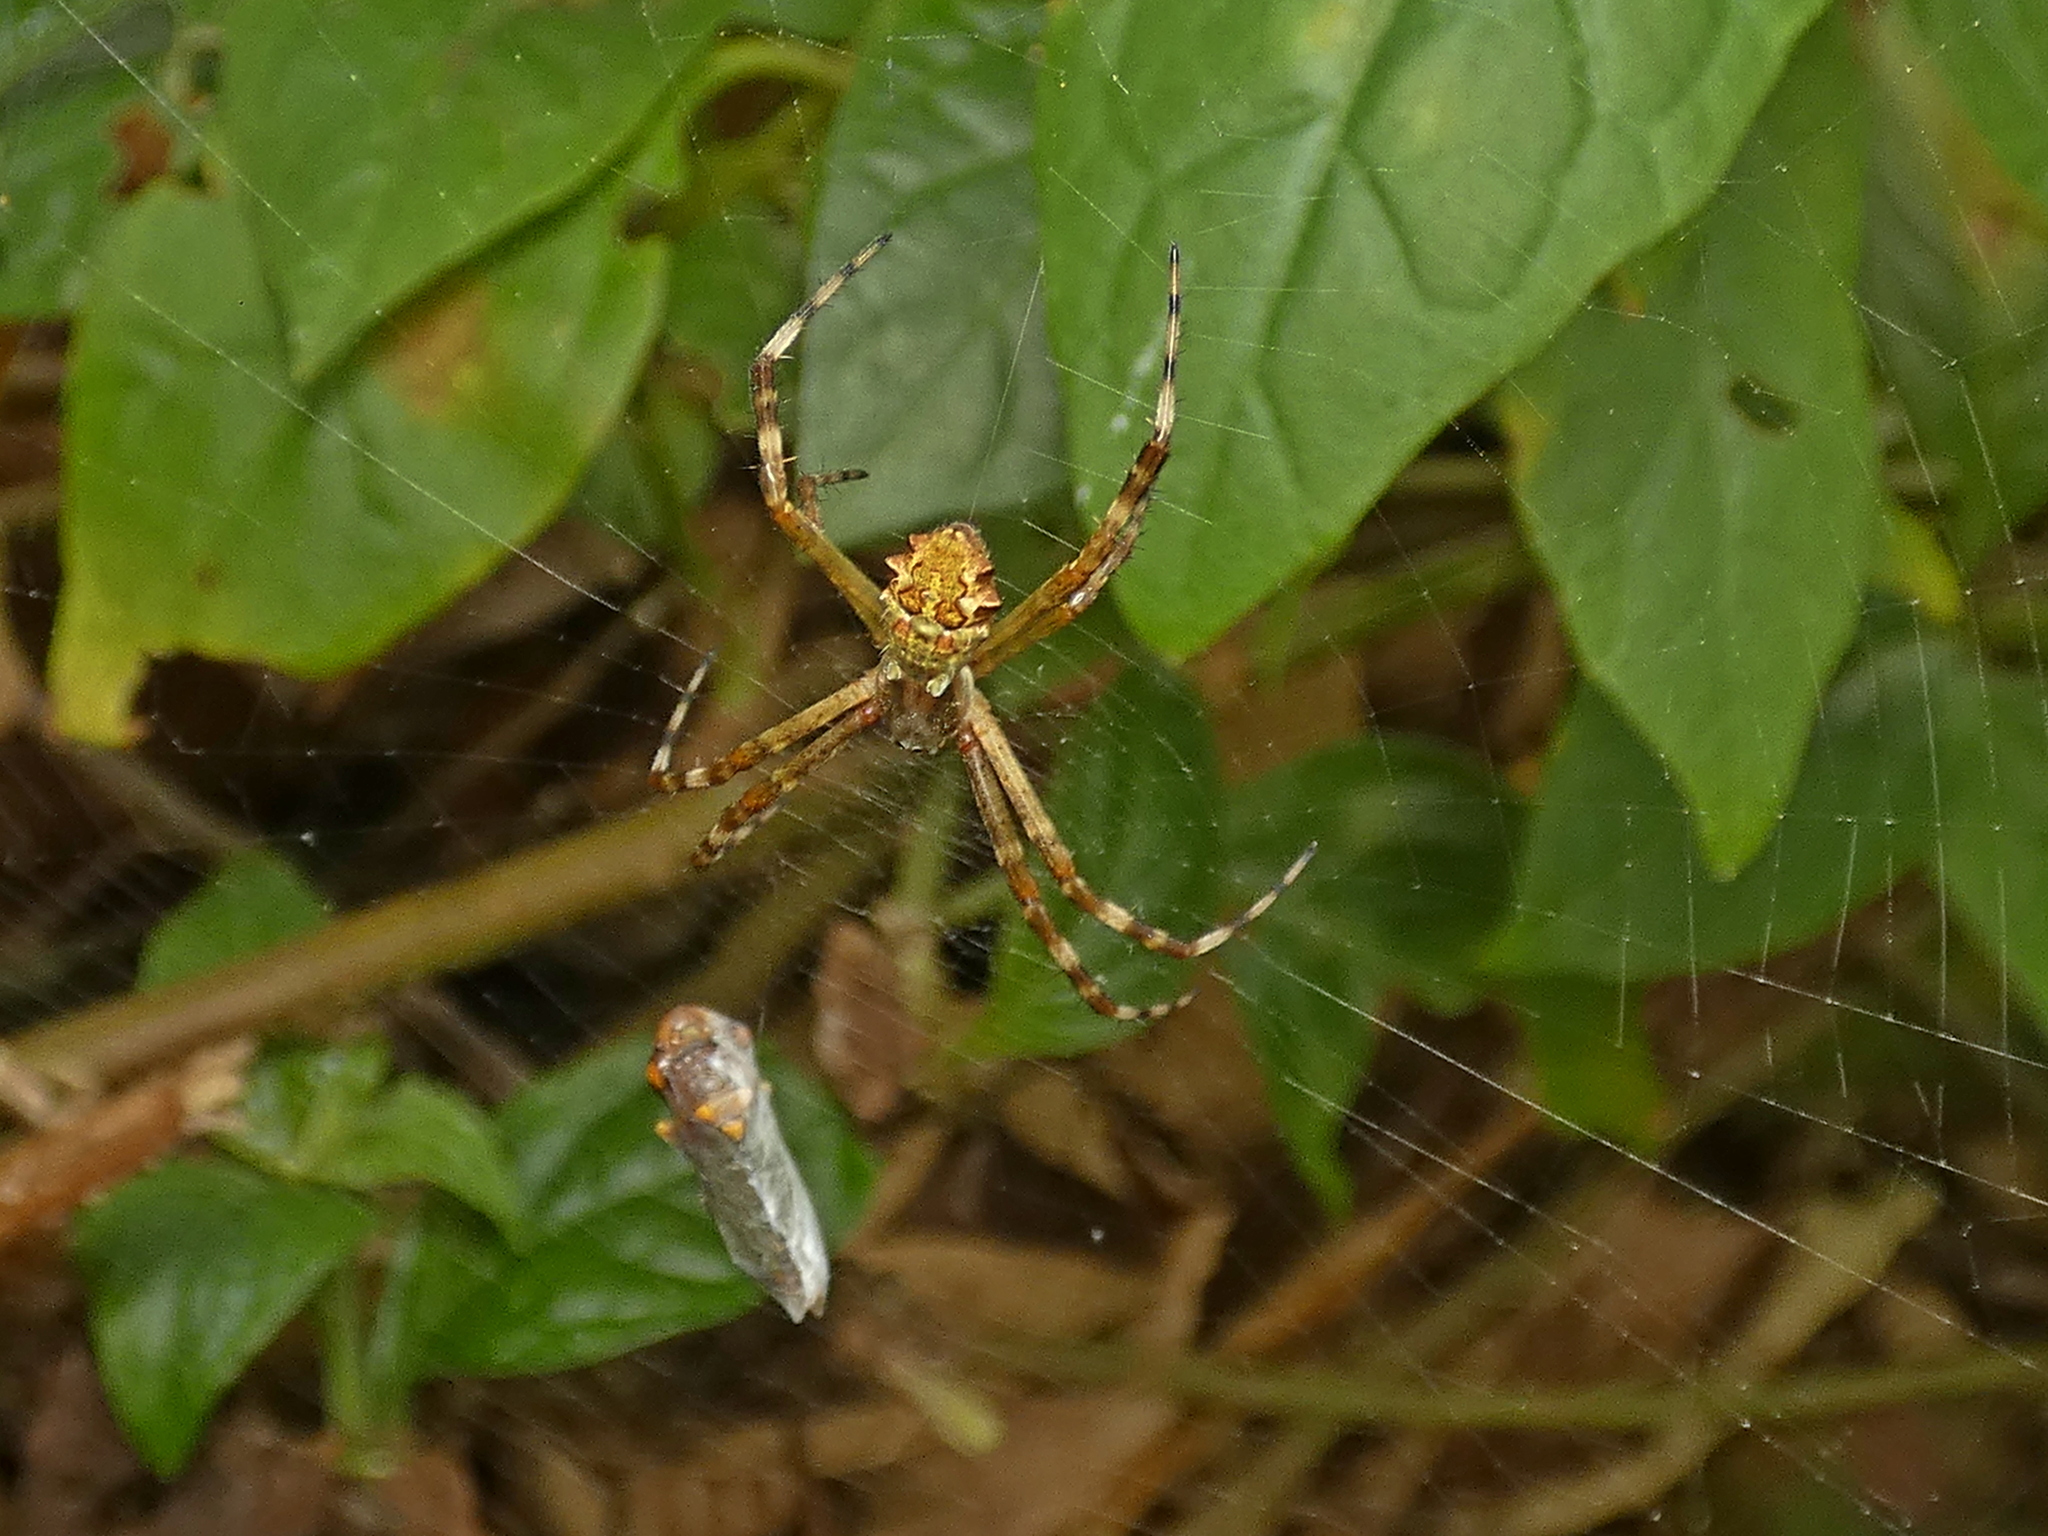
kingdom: Animalia
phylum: Arthropoda
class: Arachnida
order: Araneae
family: Araneidae
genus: Argiope
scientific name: Argiope argentata
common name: Orb weavers
